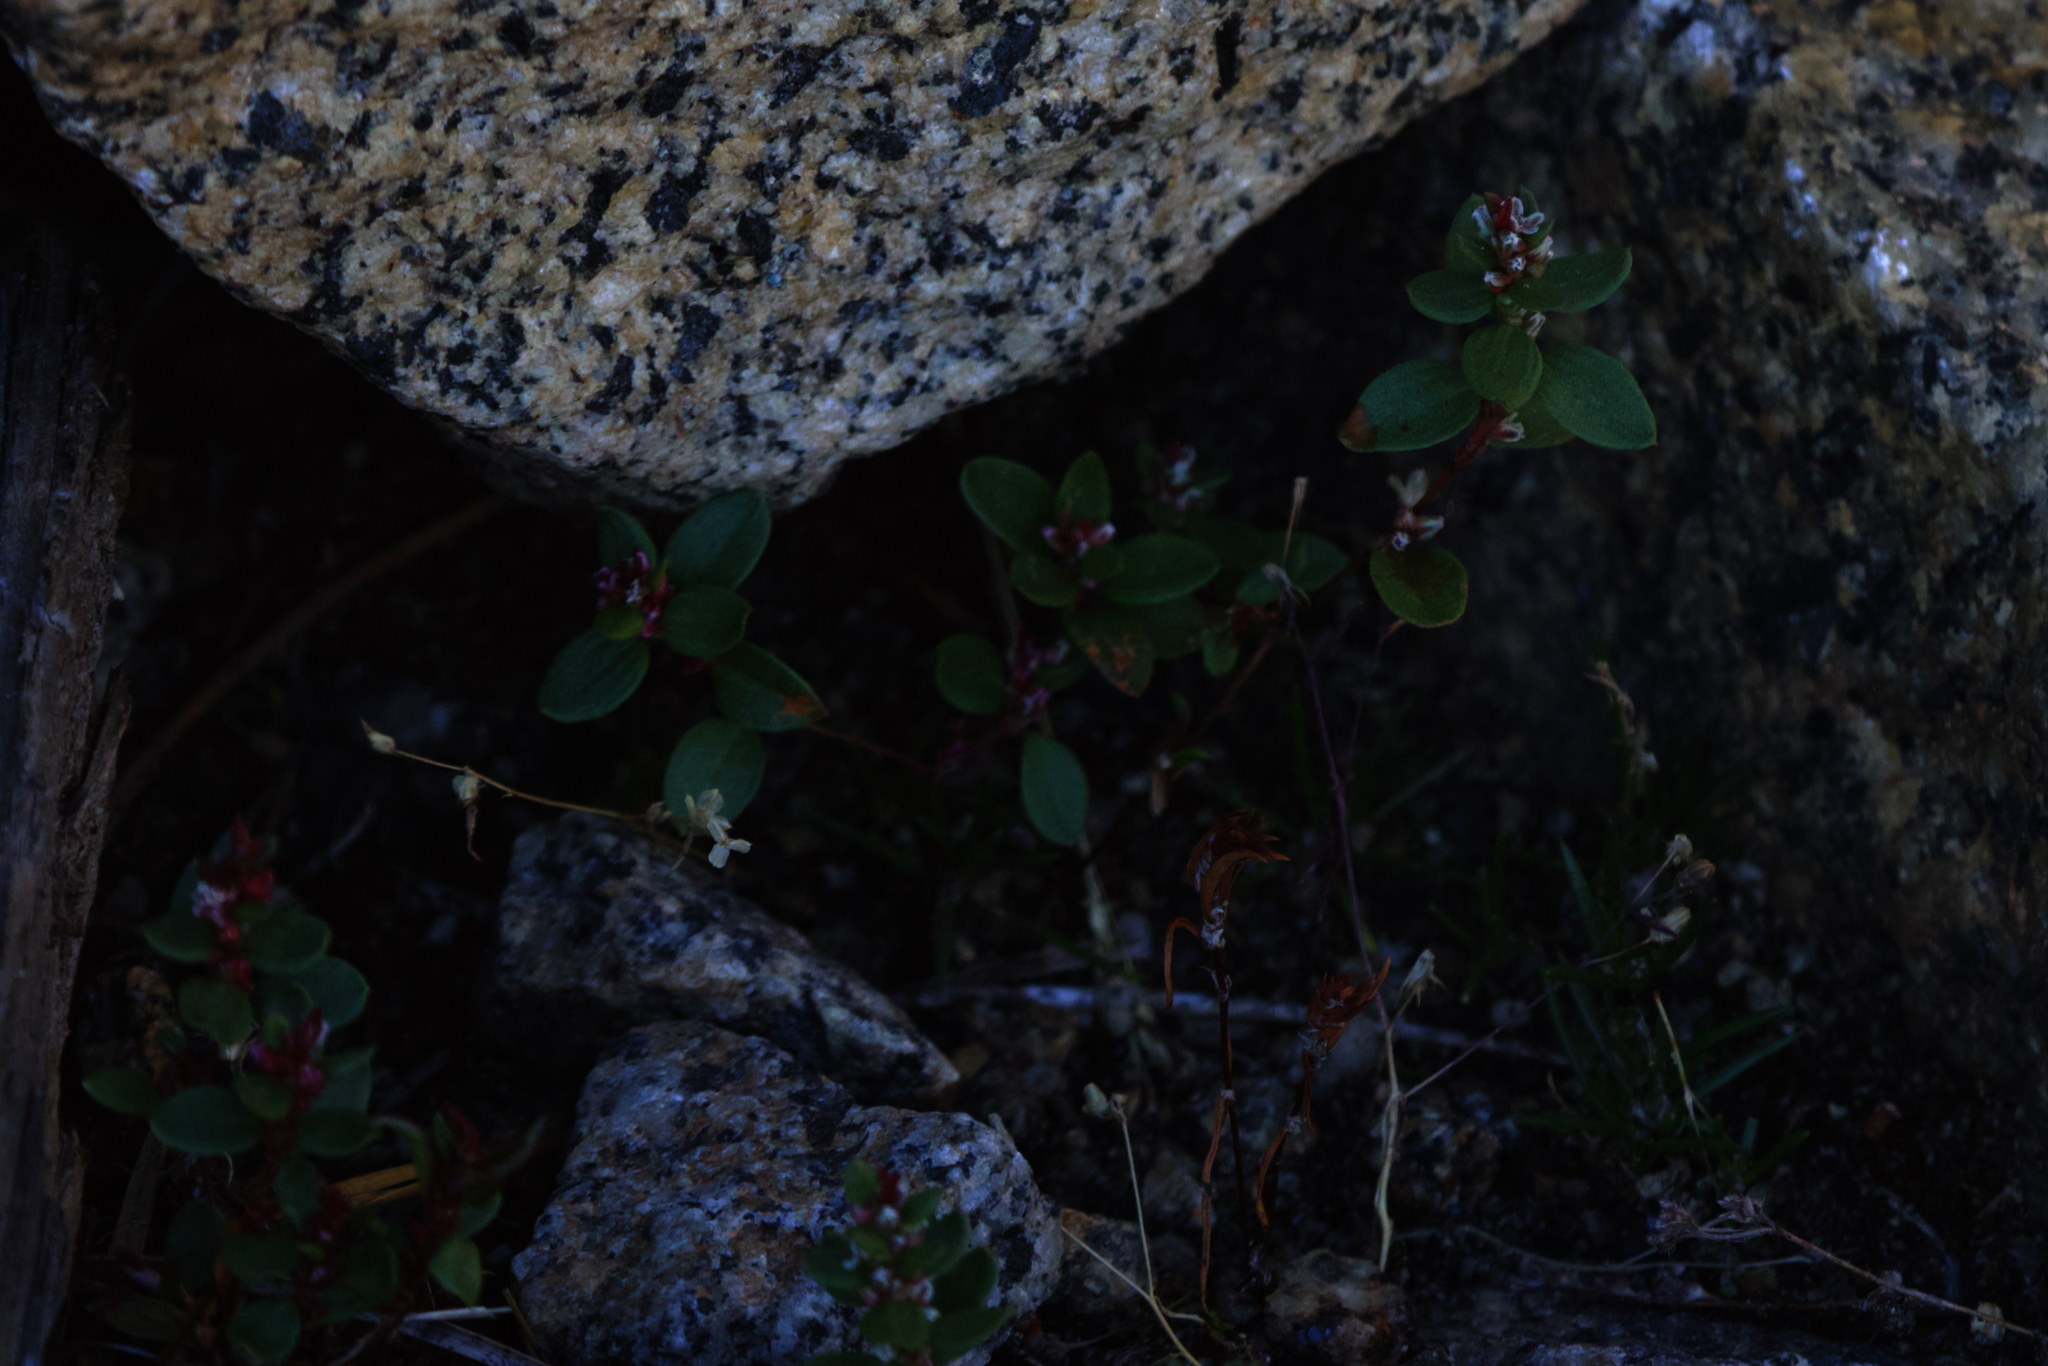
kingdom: Plantae
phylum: Tracheophyta
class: Magnoliopsida
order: Caryophyllales
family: Polygonaceae
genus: Polygonum
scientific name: Polygonum minimum
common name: Broad-leaved knotweed
